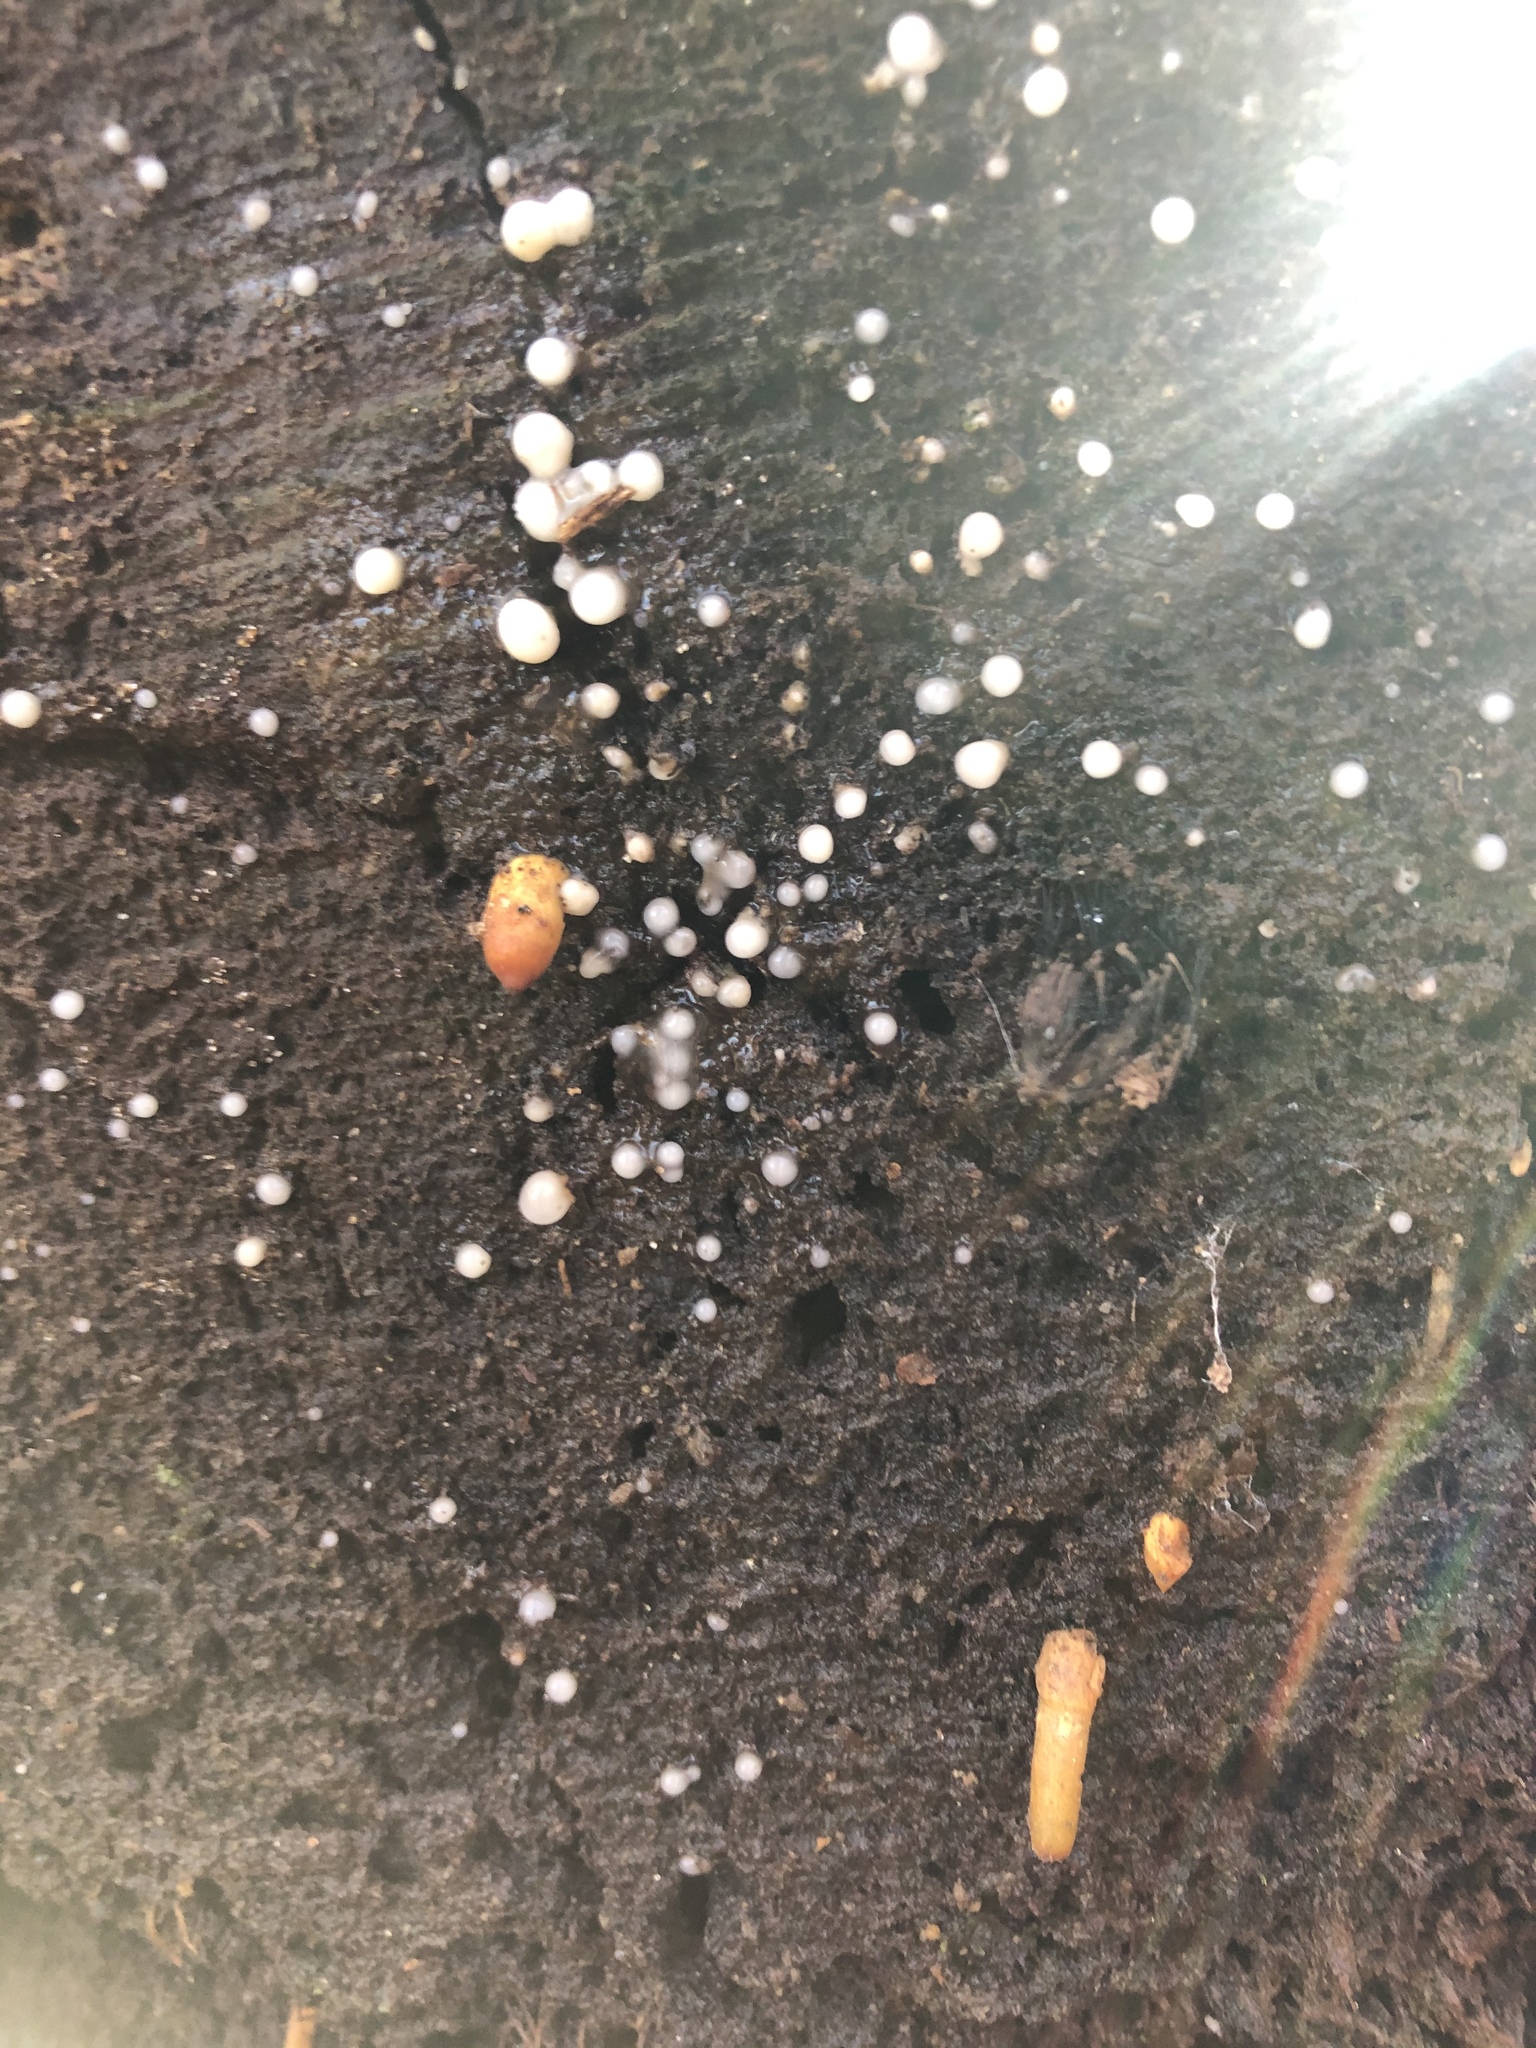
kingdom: Fungi
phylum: Basidiomycota
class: Atractiellomycetes
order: Atractiellales
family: Phleogenaceae
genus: Helicogloea
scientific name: Helicogloea compressa
